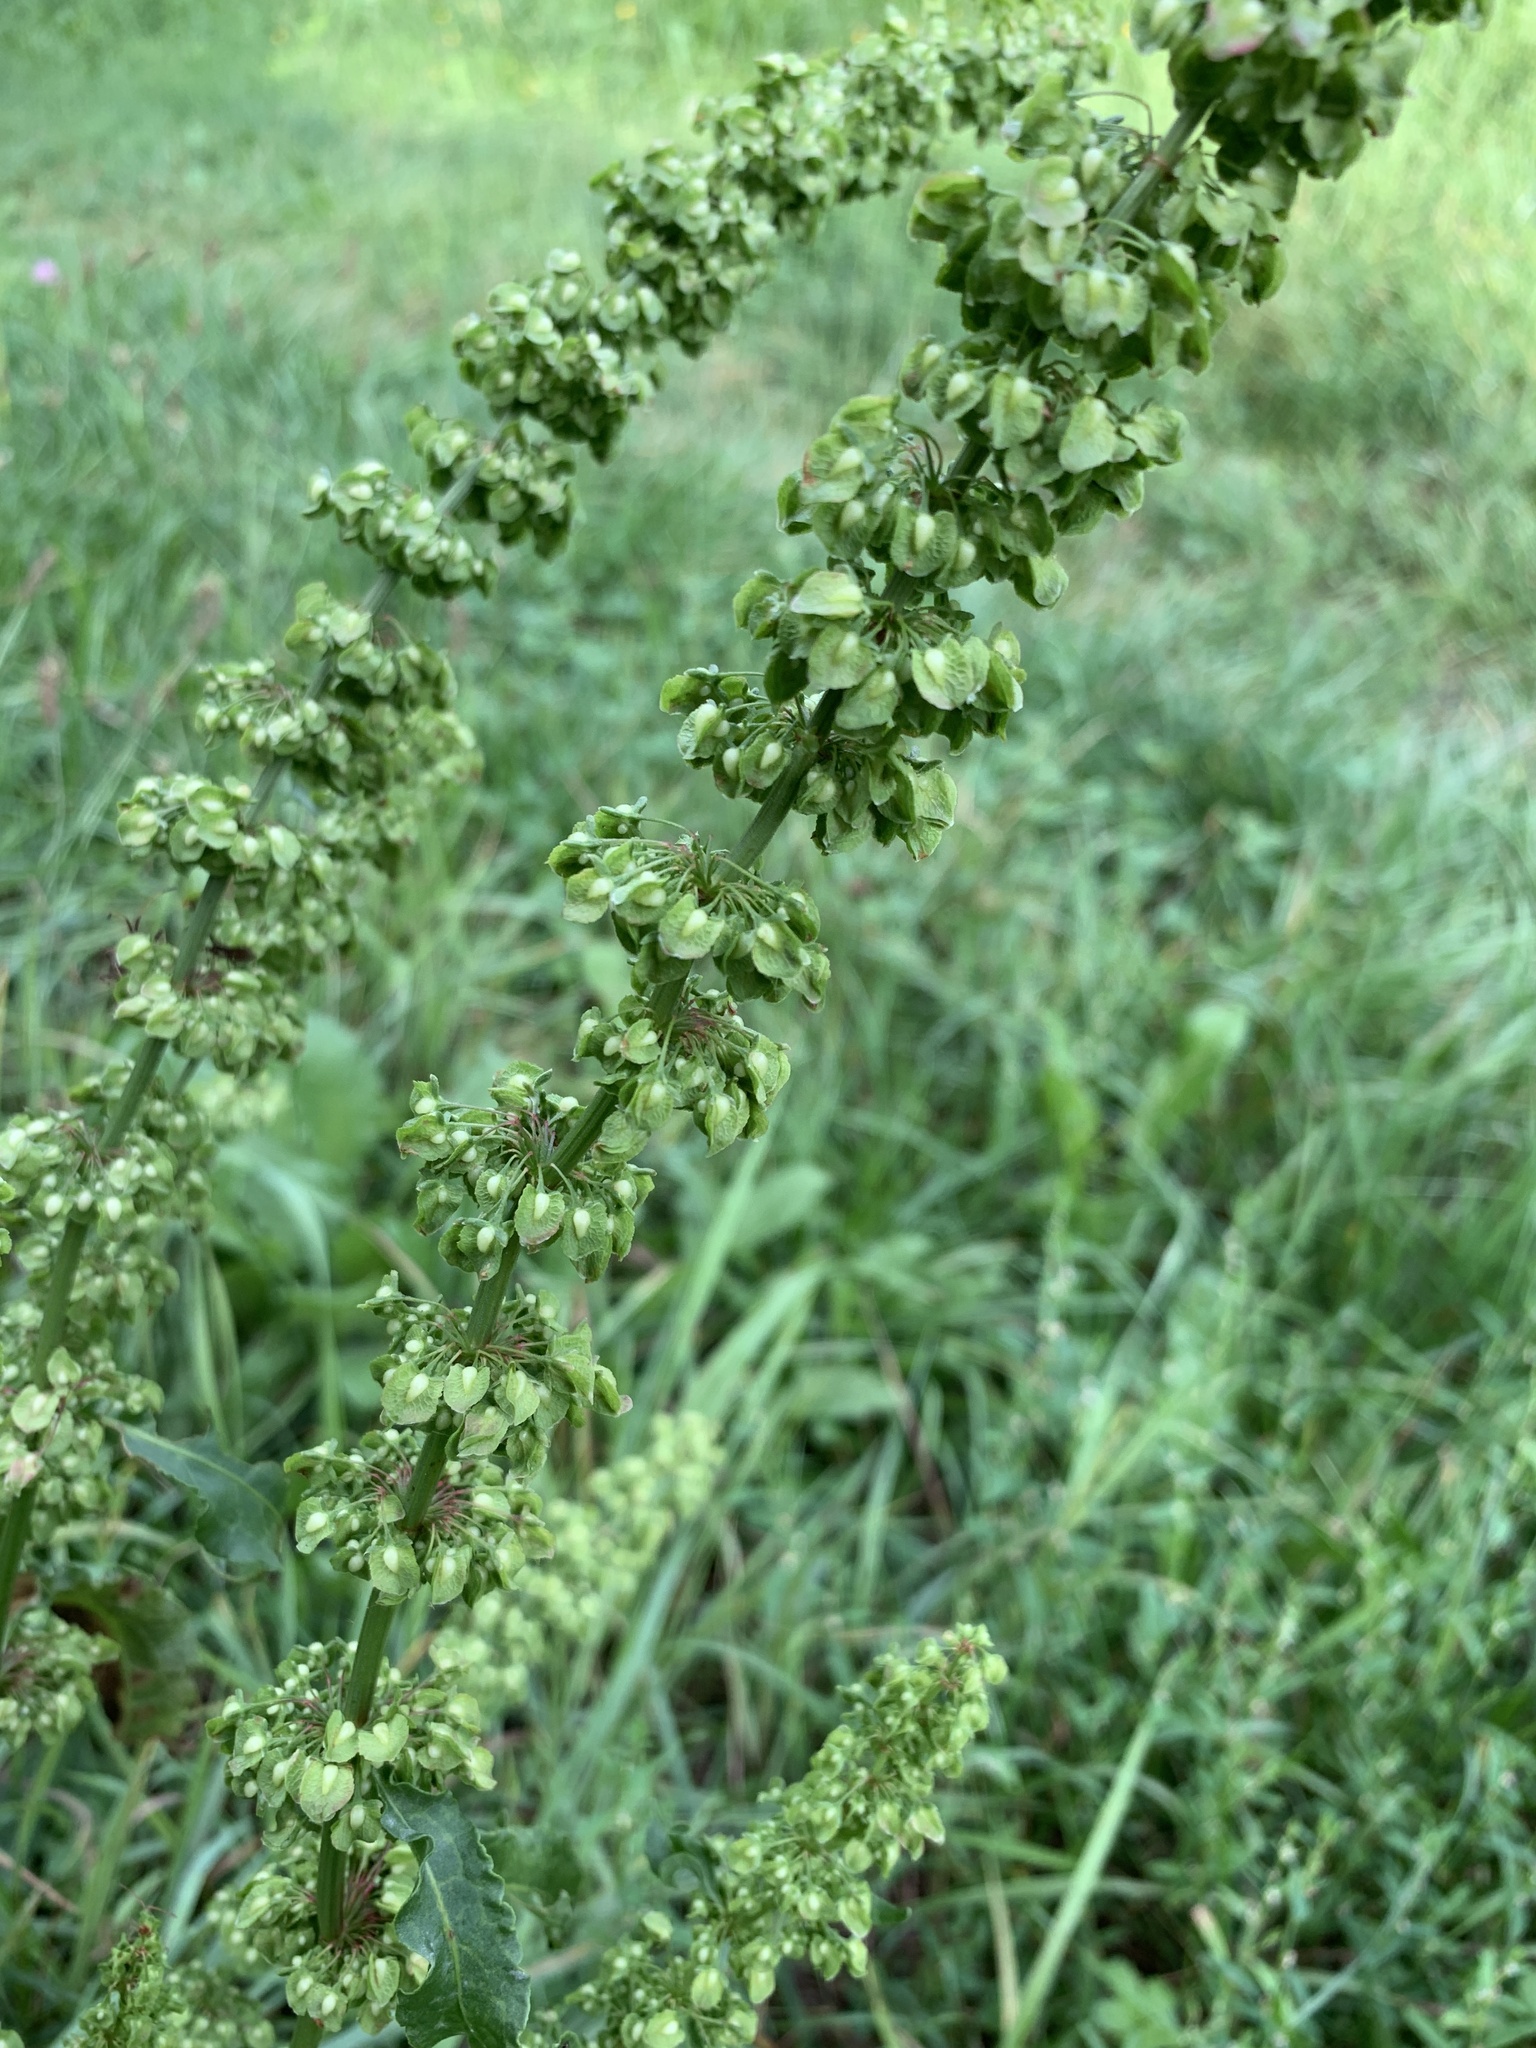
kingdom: Plantae
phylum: Tracheophyta
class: Magnoliopsida
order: Caryophyllales
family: Polygonaceae
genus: Rumex
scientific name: Rumex crispus
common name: Curled dock
